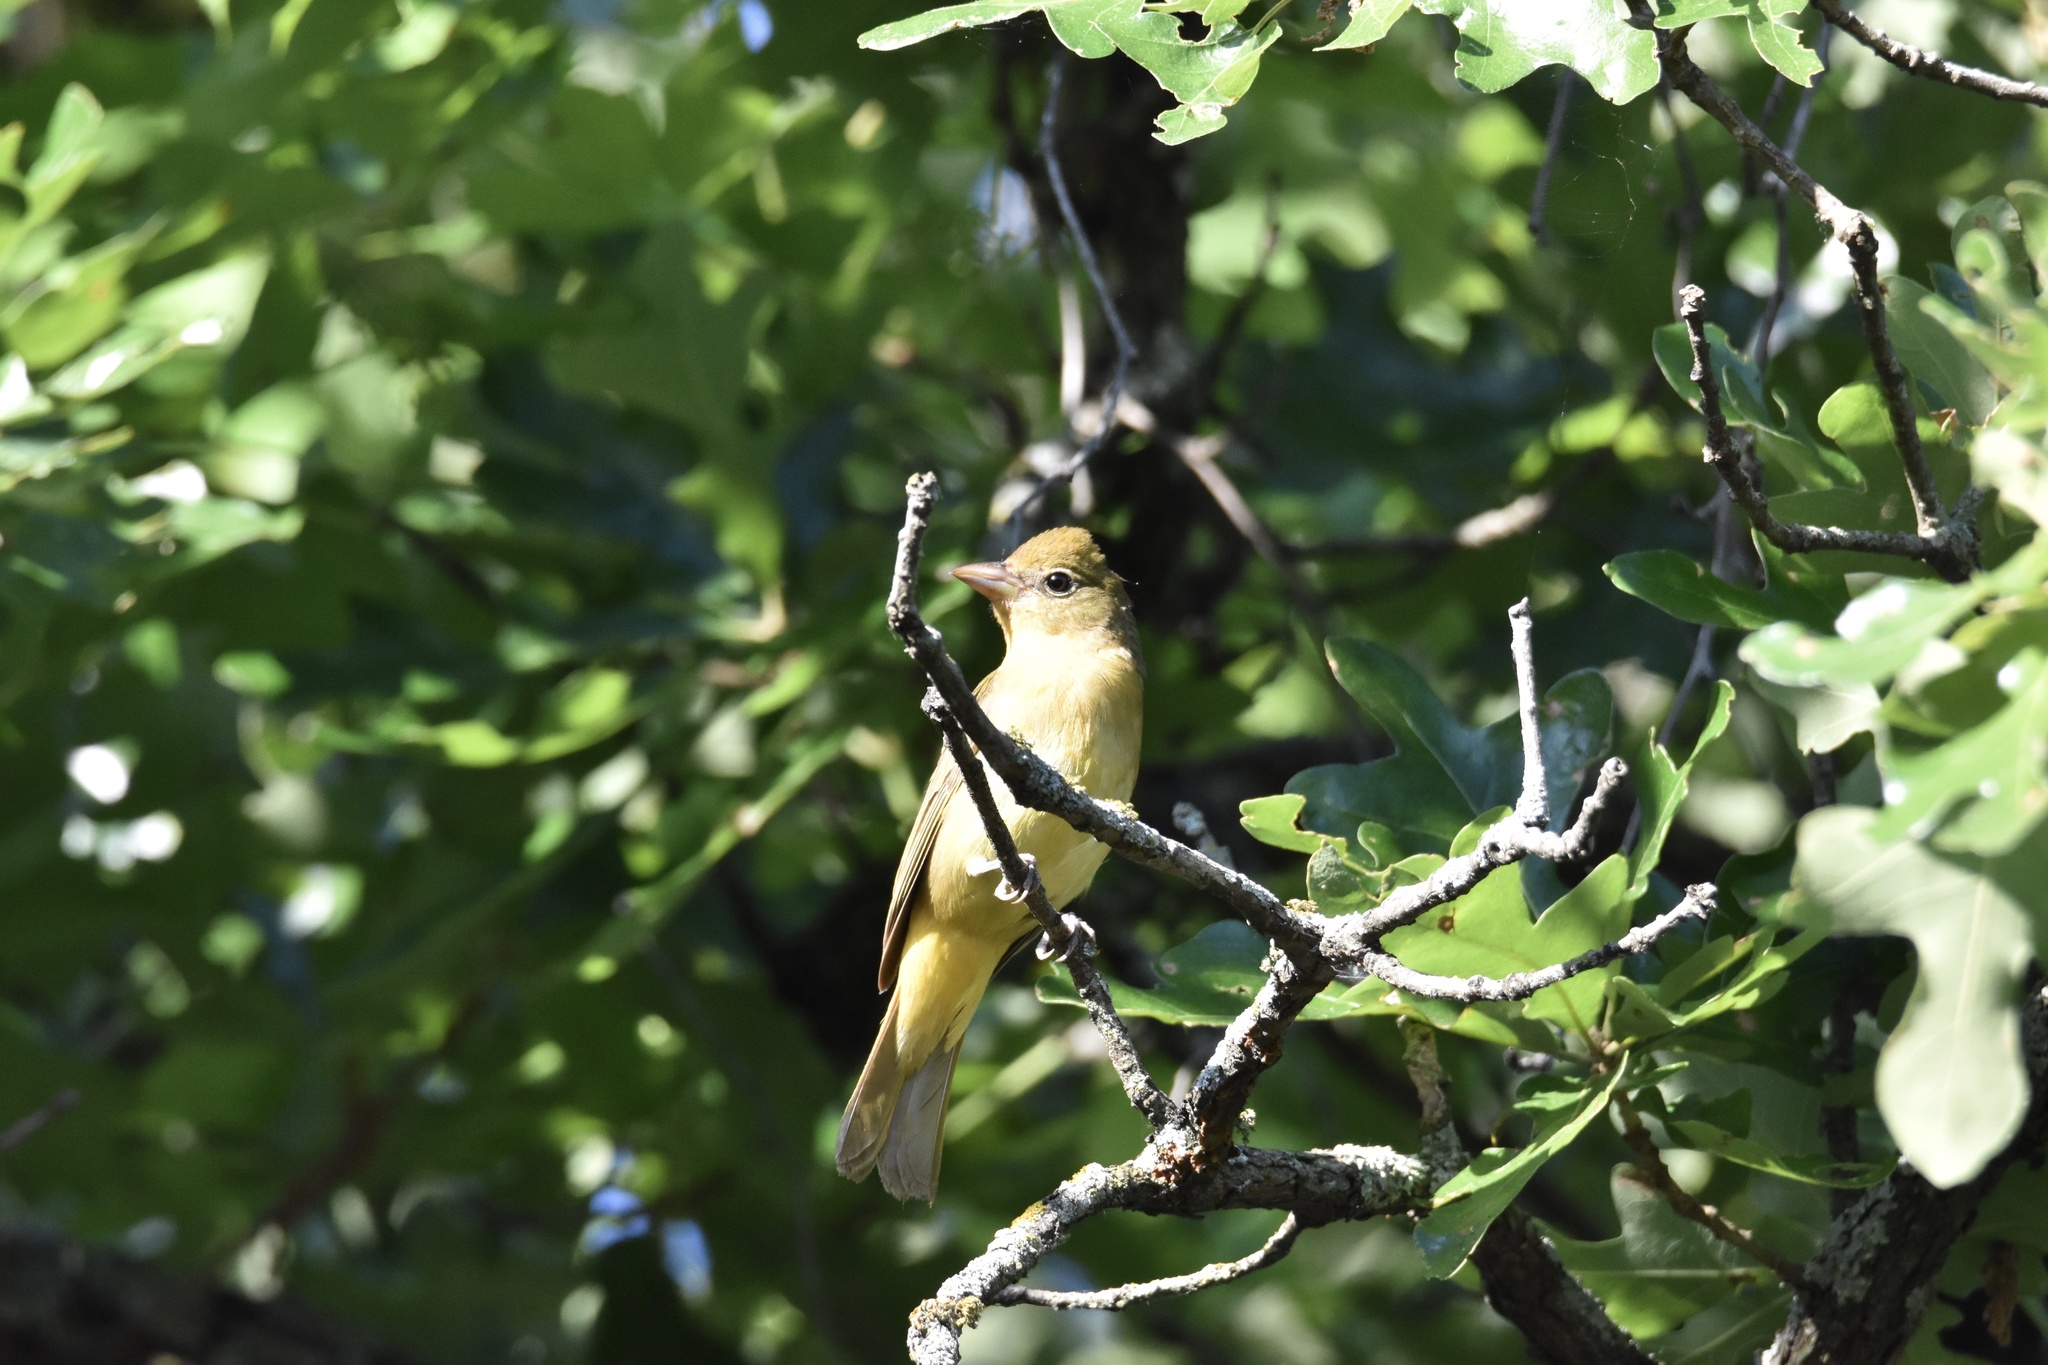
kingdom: Animalia
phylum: Chordata
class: Aves
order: Passeriformes
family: Cardinalidae
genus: Piranga
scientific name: Piranga rubra
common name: Summer tanager
